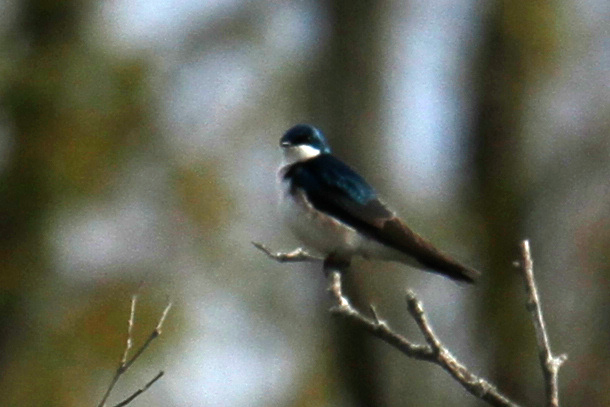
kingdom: Animalia
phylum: Chordata
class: Aves
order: Passeriformes
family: Hirundinidae
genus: Tachycineta
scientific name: Tachycineta bicolor
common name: Tree swallow
